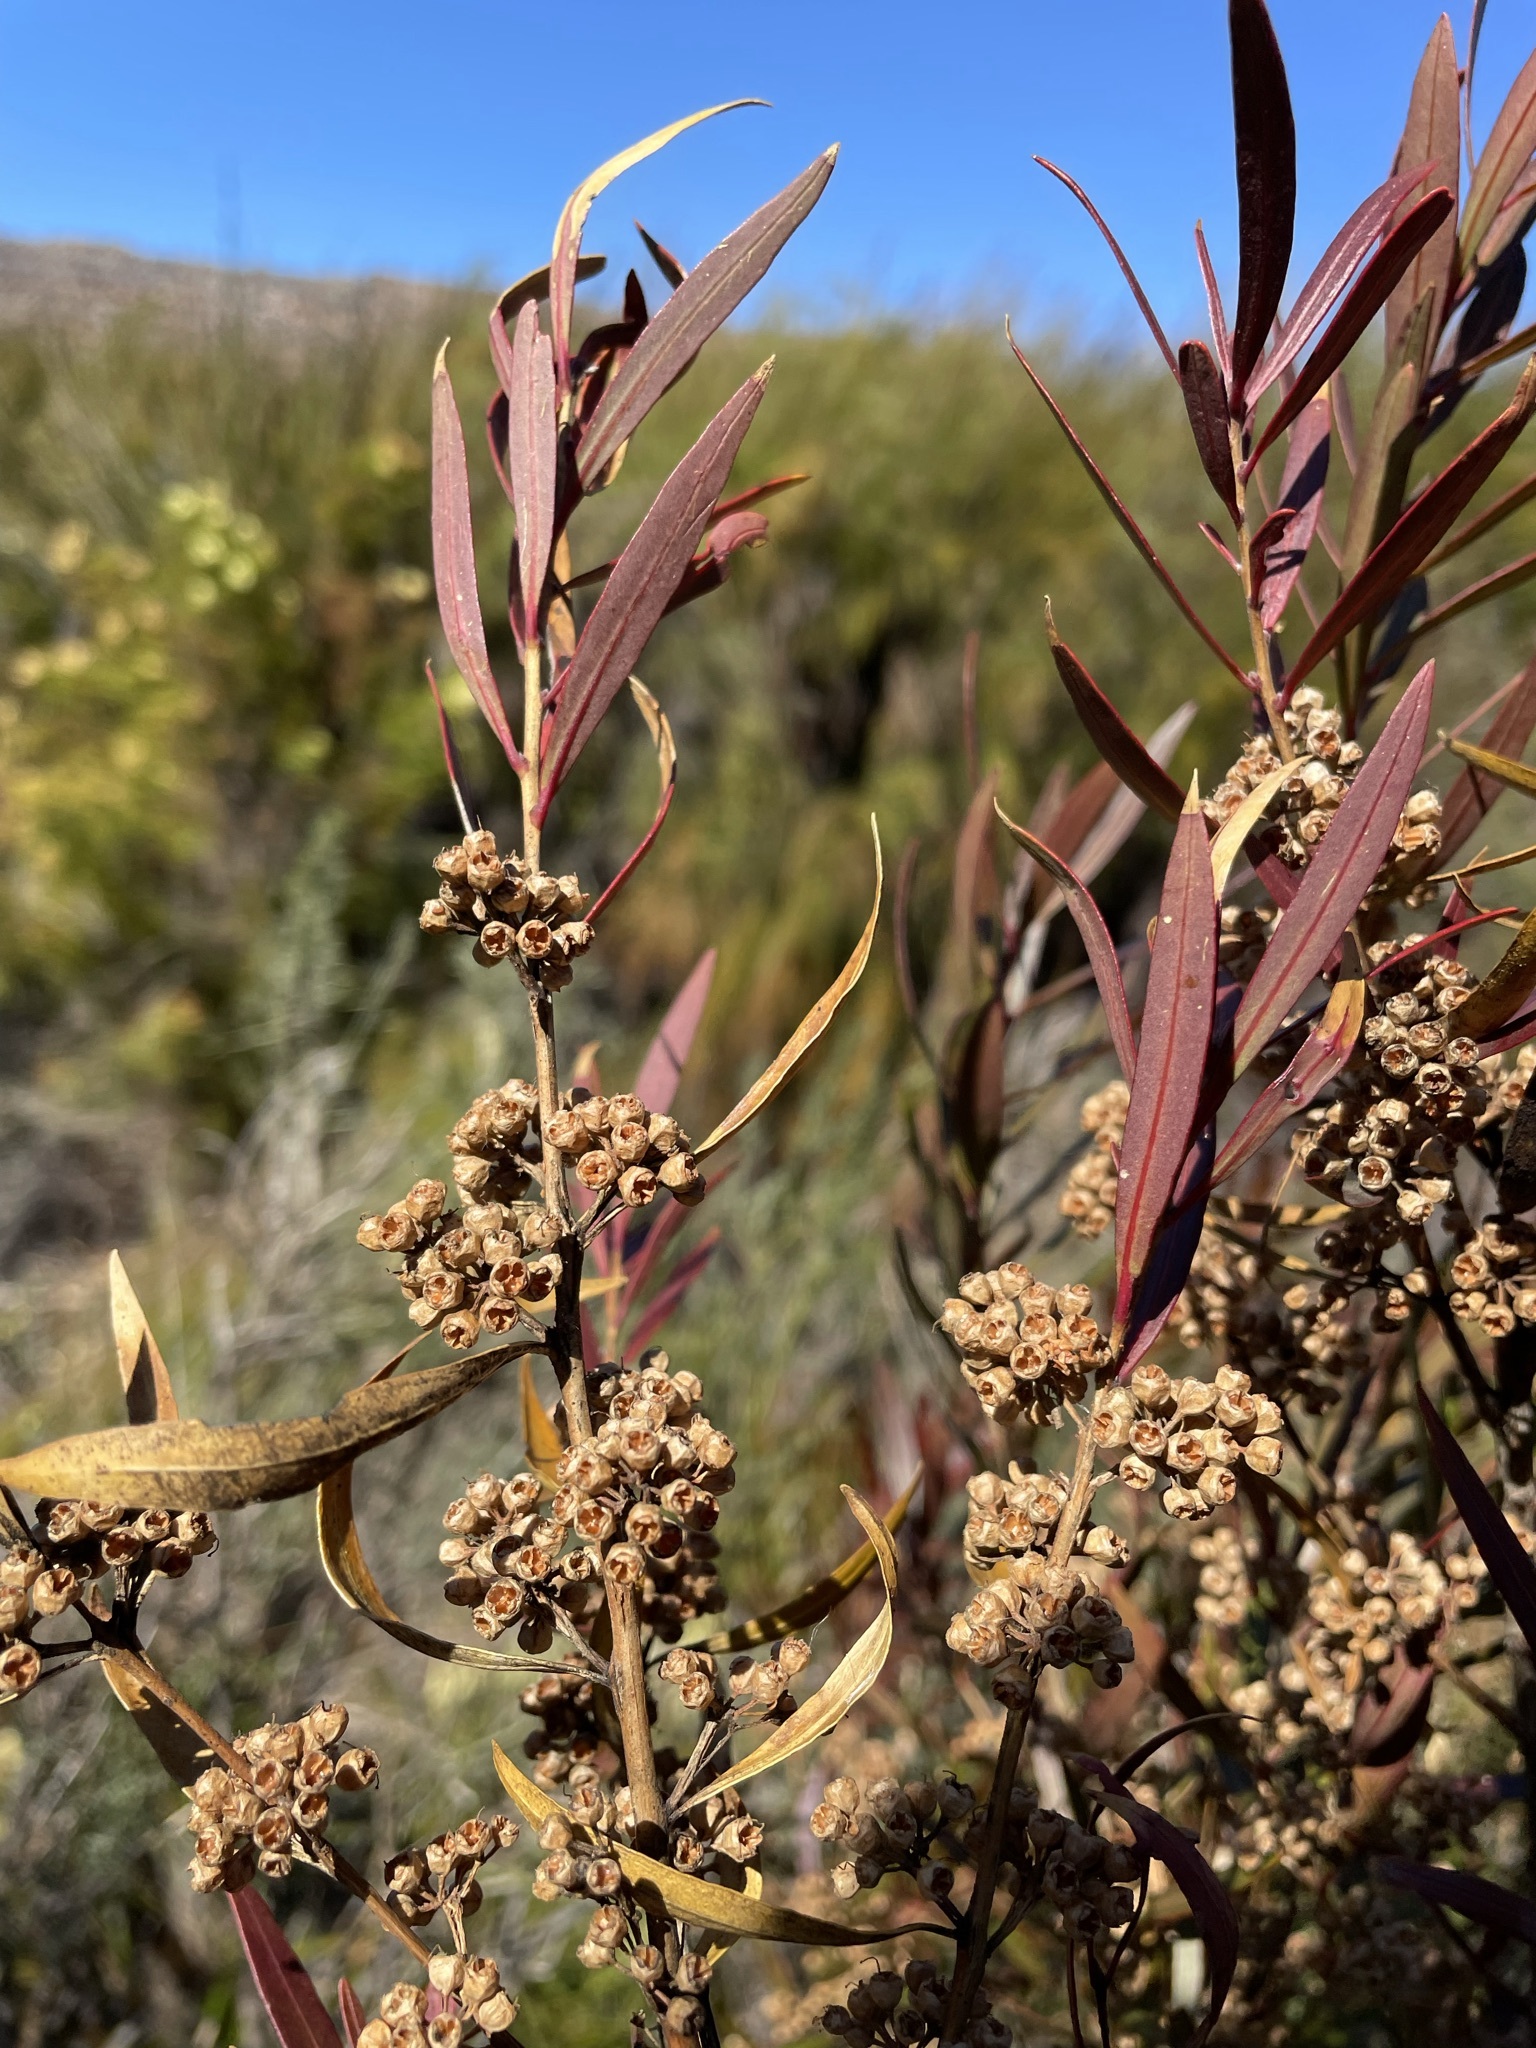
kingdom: Plantae
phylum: Tracheophyta
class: Magnoliopsida
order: Myrtales
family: Myrtaceae
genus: Callistemon
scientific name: Callistemon lanceolatus
